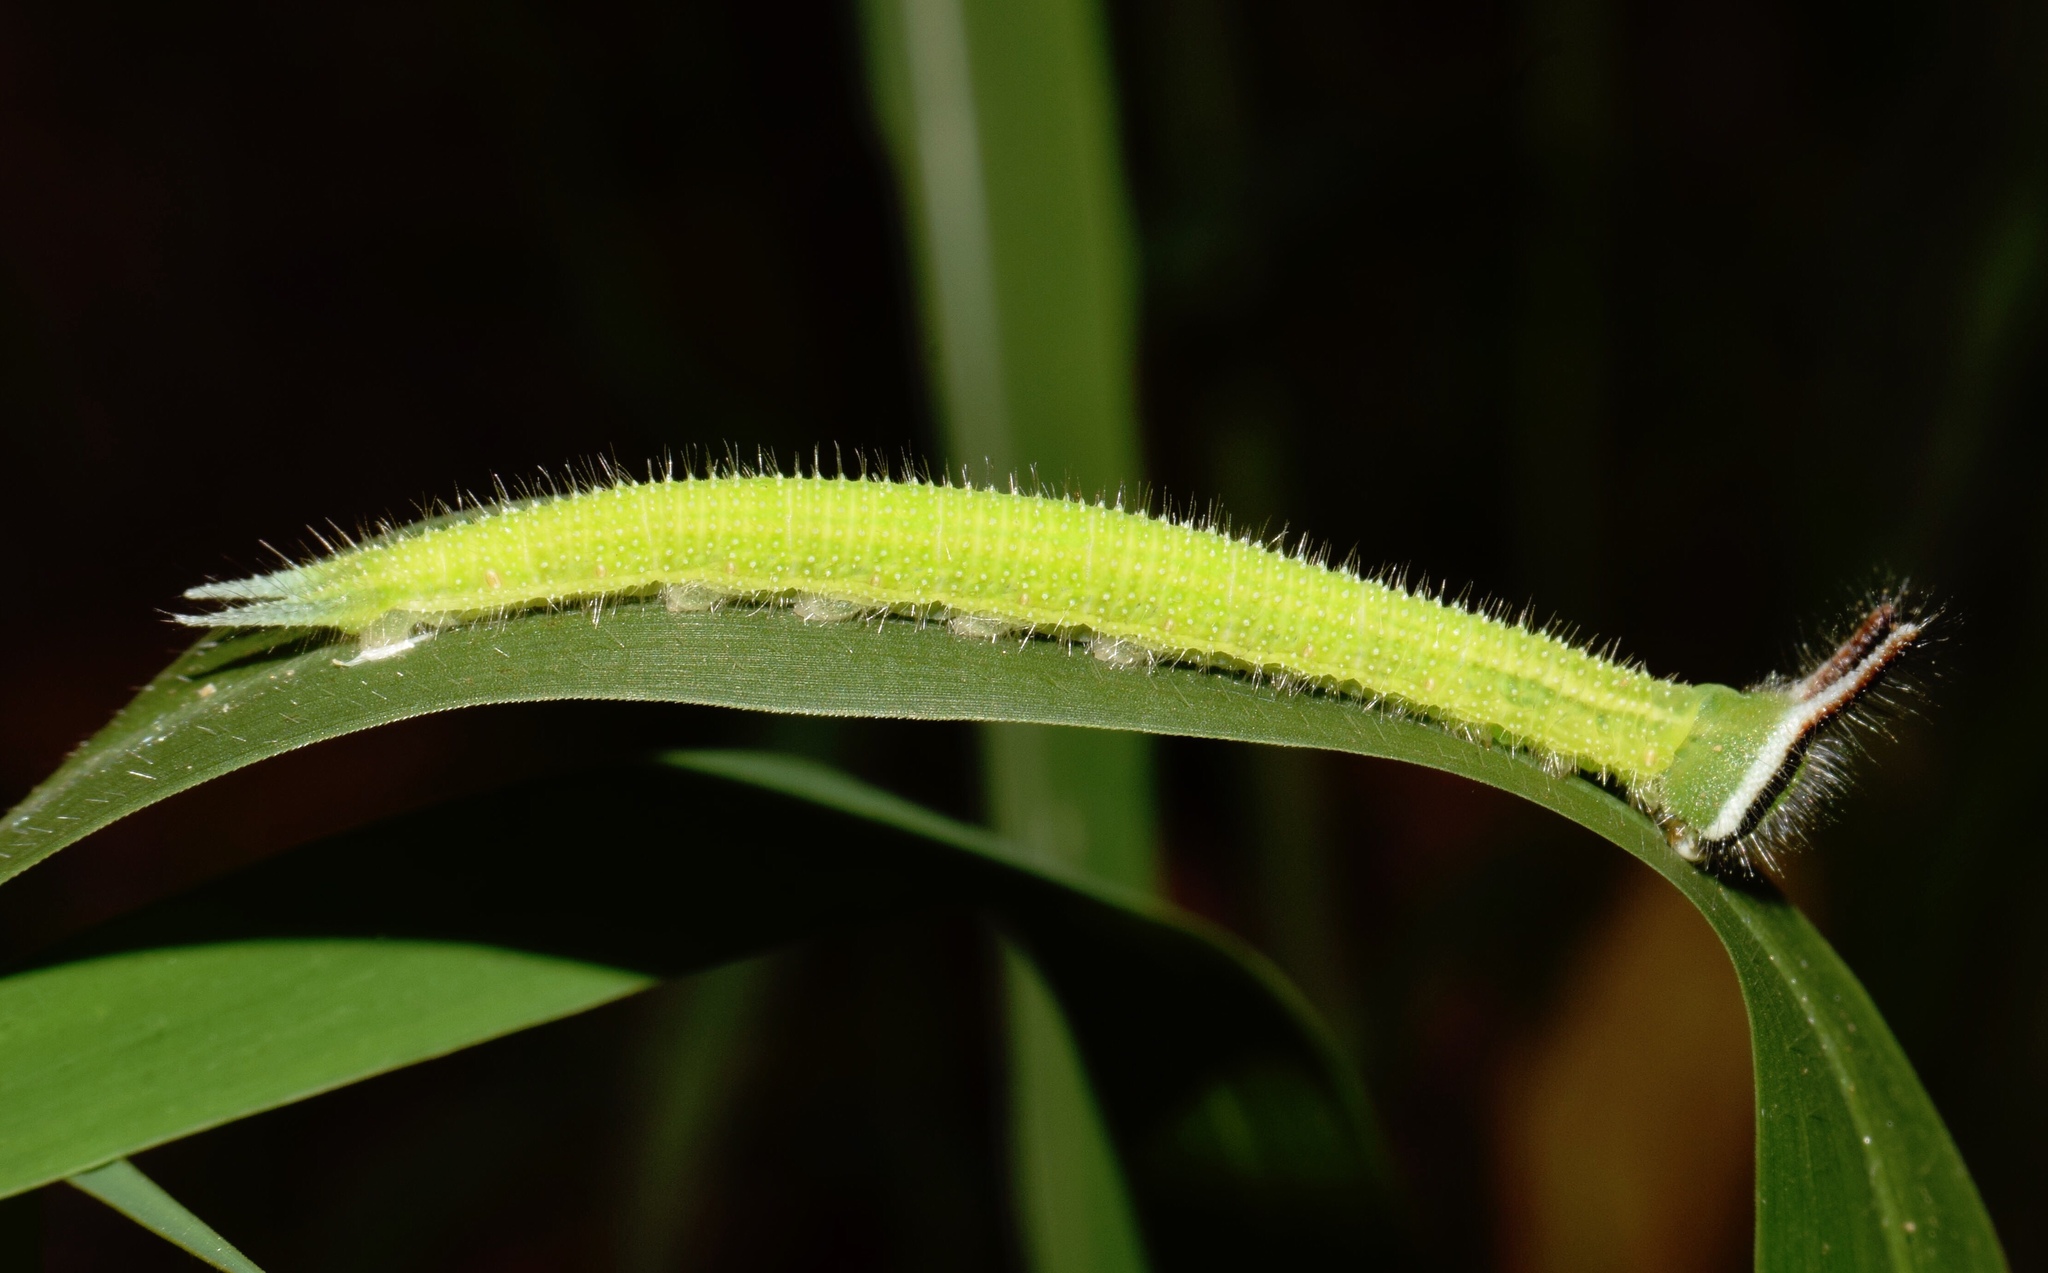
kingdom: Animalia
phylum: Arthropoda
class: Insecta
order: Lepidoptera
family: Nymphalidae
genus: Melanitis
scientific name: Melanitis leda
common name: Twilight brown
